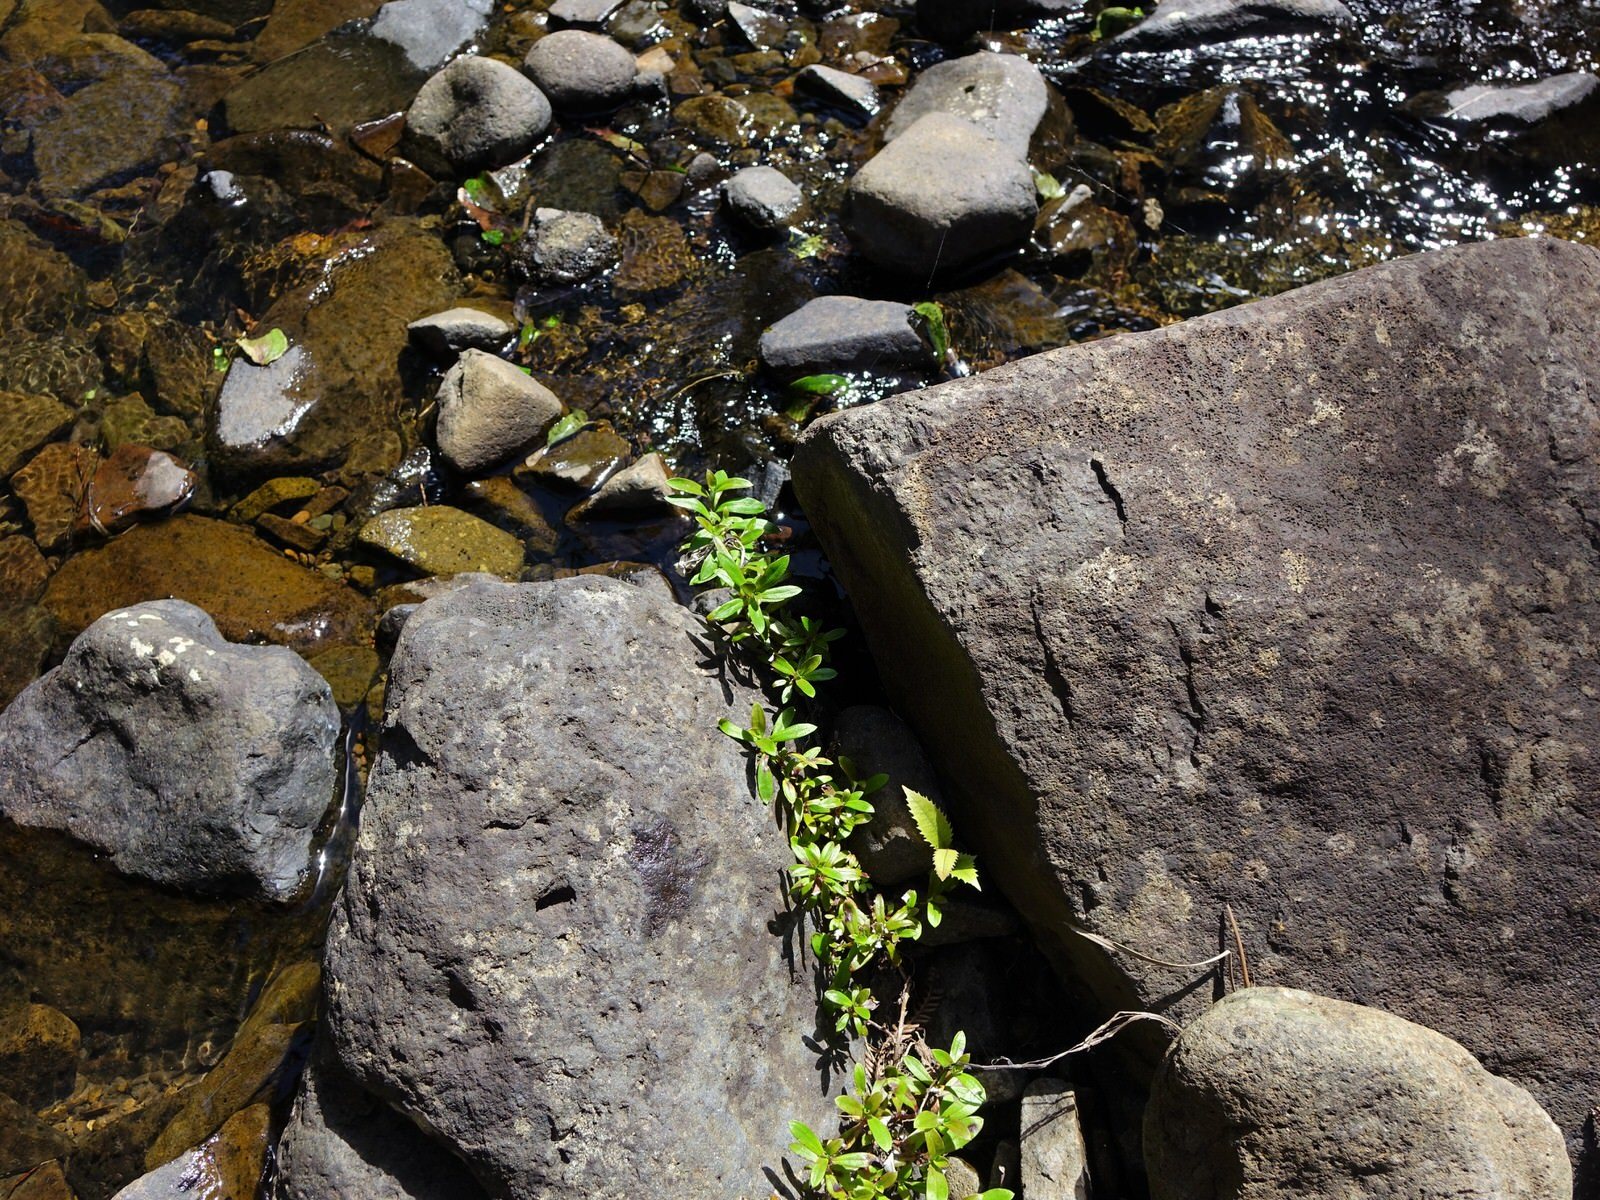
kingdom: Plantae
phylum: Tracheophyta
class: Magnoliopsida
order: Asterales
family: Asteraceae
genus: Anaphalioides
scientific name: Anaphalioides trinervis
